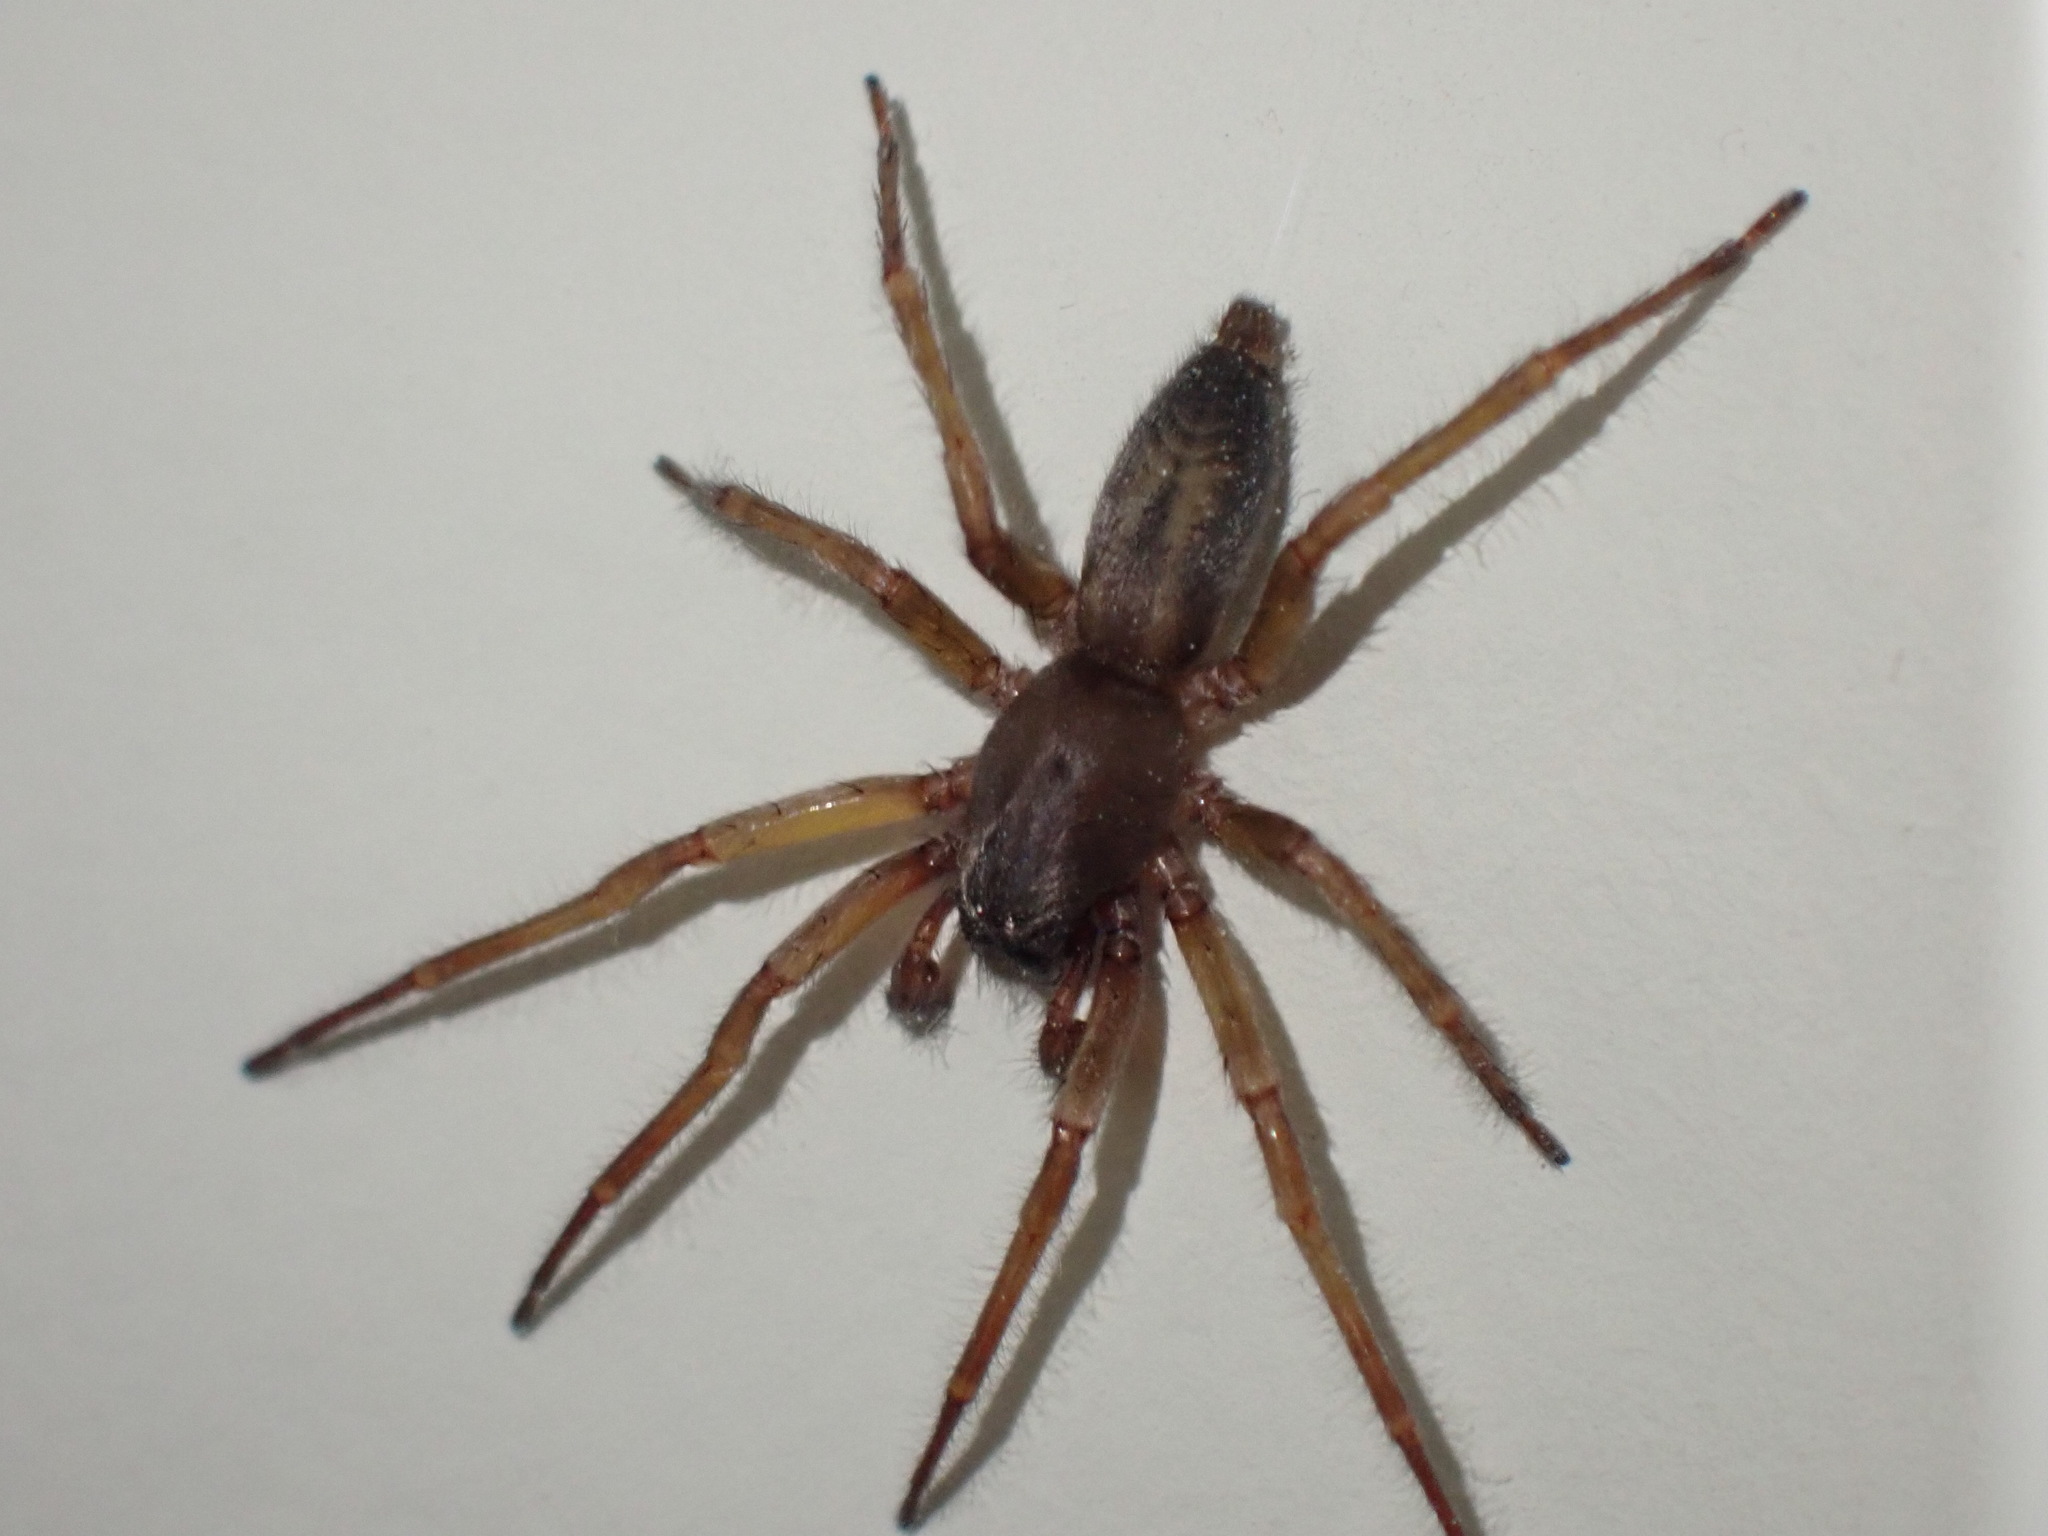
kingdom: Animalia
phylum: Arthropoda
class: Arachnida
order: Araneae
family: Clubionidae
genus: Clubiona
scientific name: Clubiona corticalis
